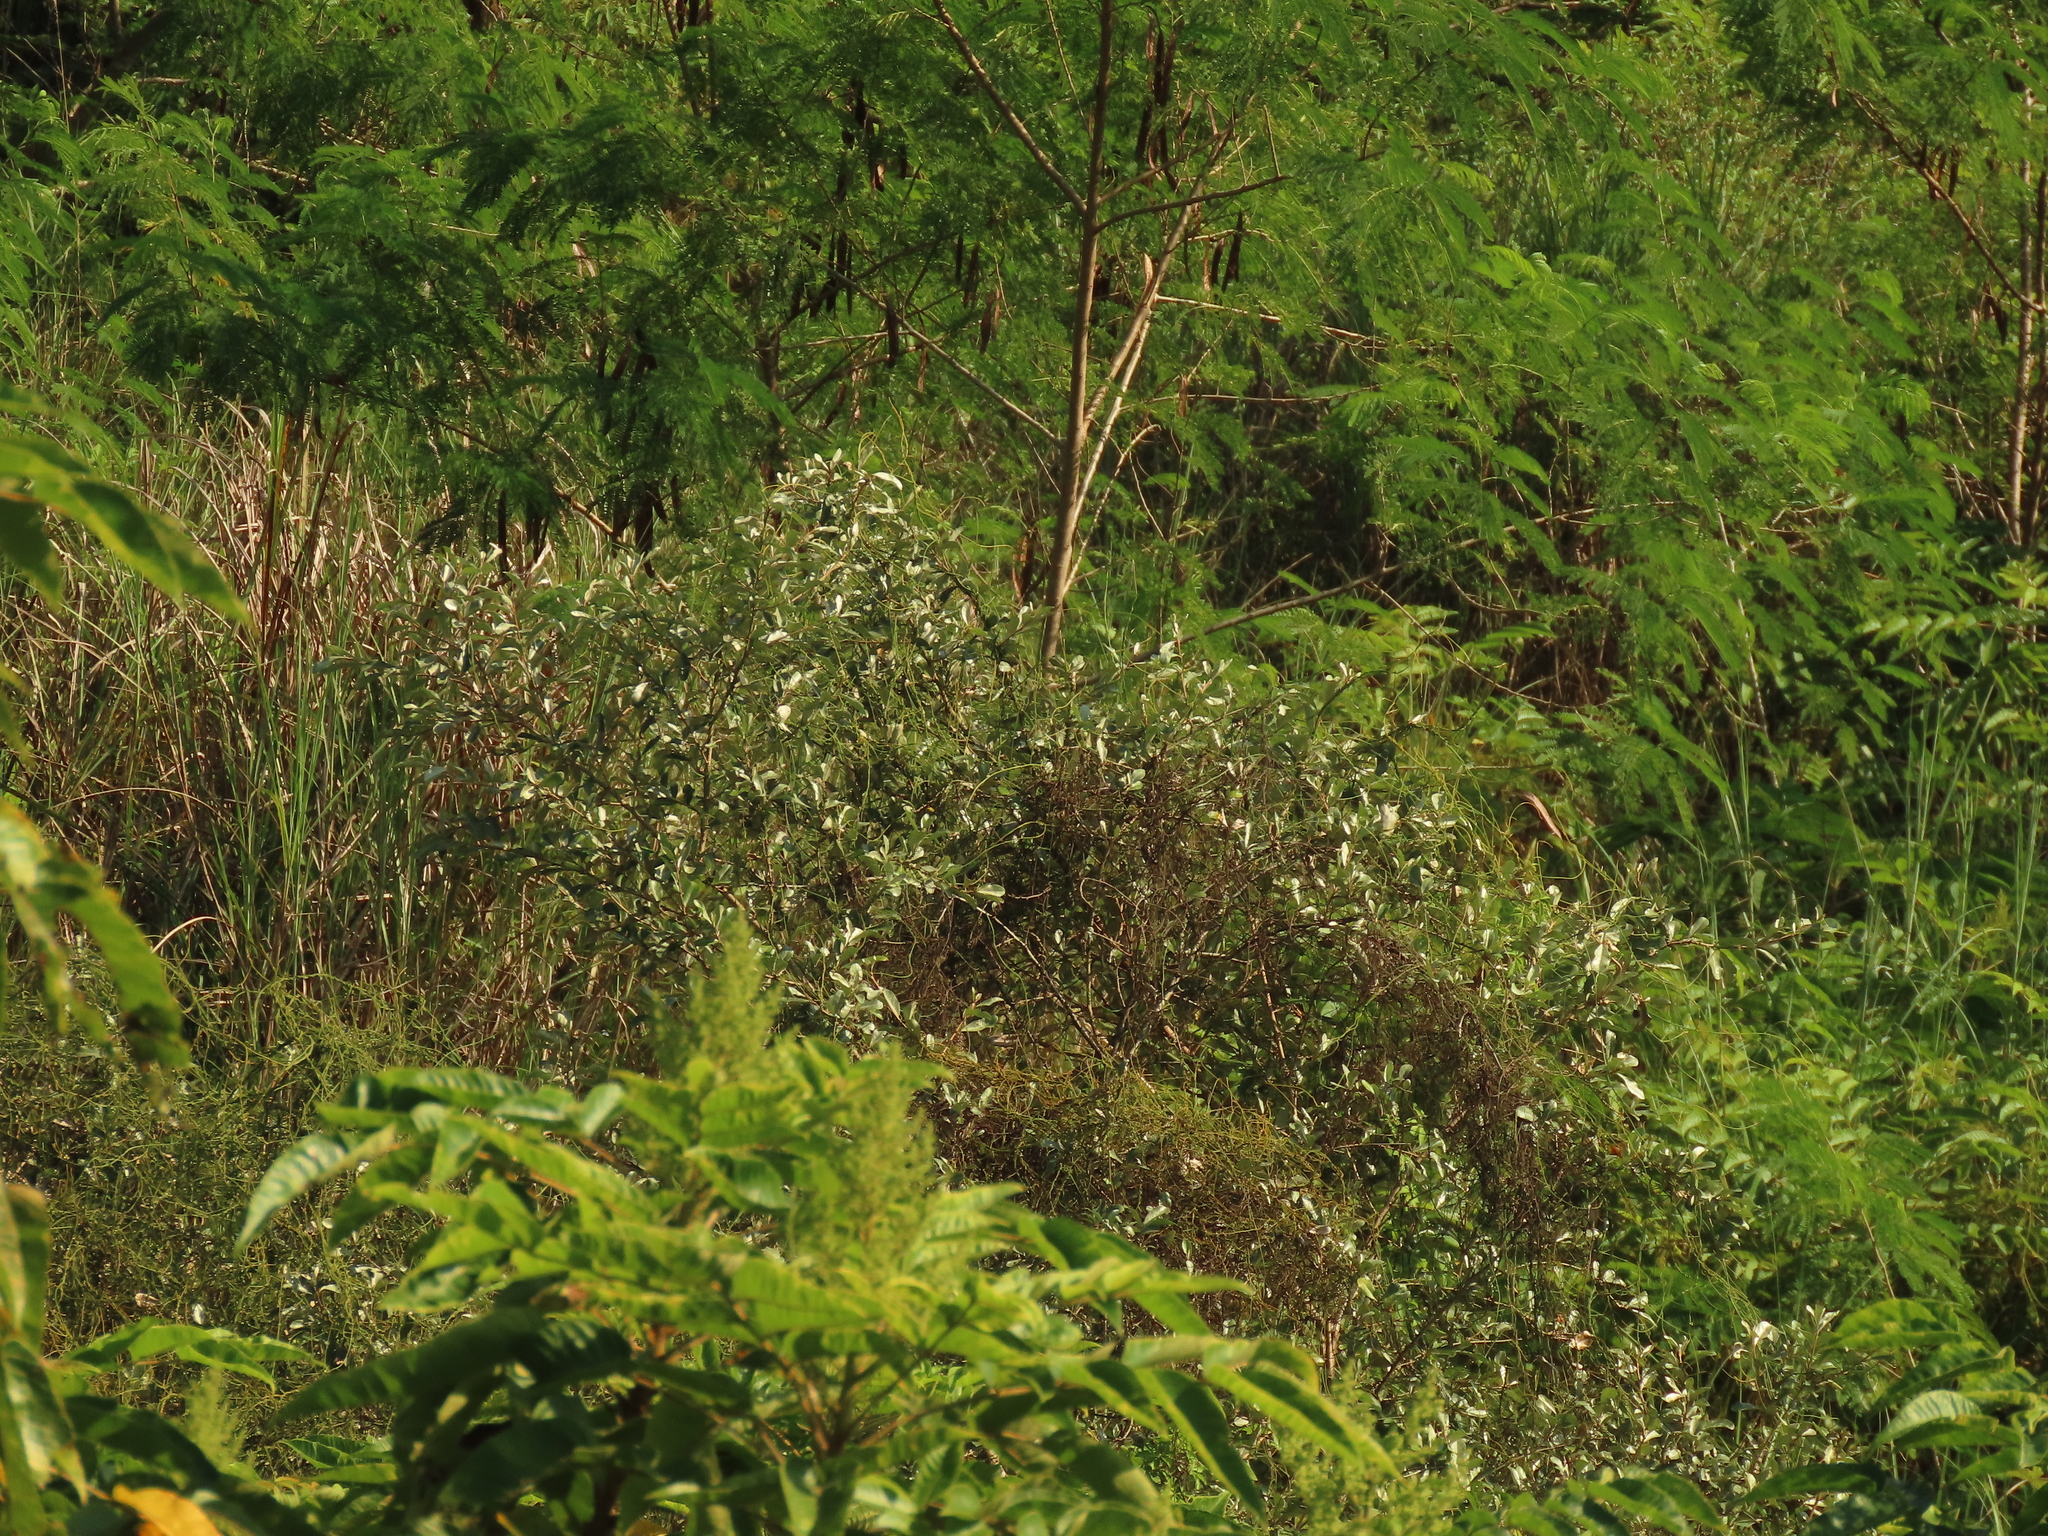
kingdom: Plantae
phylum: Tracheophyta
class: Magnoliopsida
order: Rosales
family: Elaeagnaceae
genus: Elaeagnus
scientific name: Elaeagnus oldhamii
